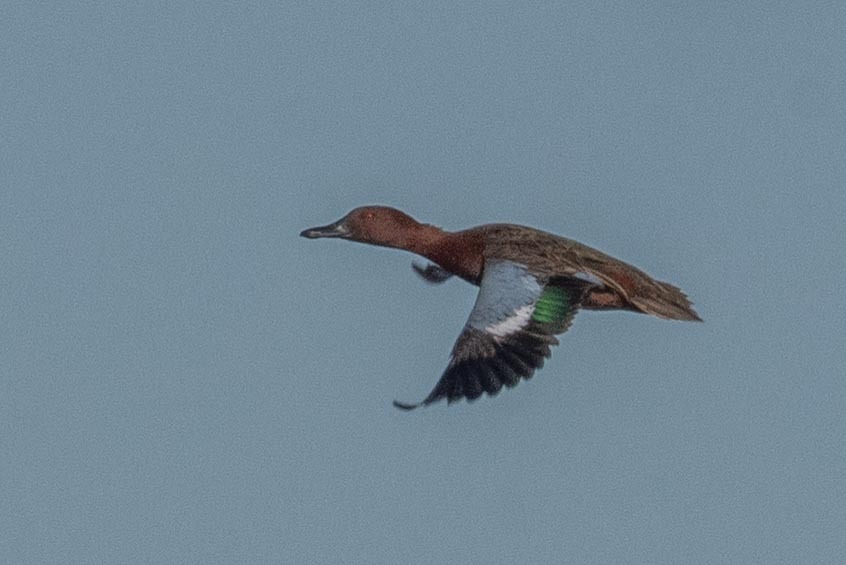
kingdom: Animalia
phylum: Chordata
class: Aves
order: Anseriformes
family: Anatidae
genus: Spatula
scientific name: Spatula cyanoptera
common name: Cinnamon teal
